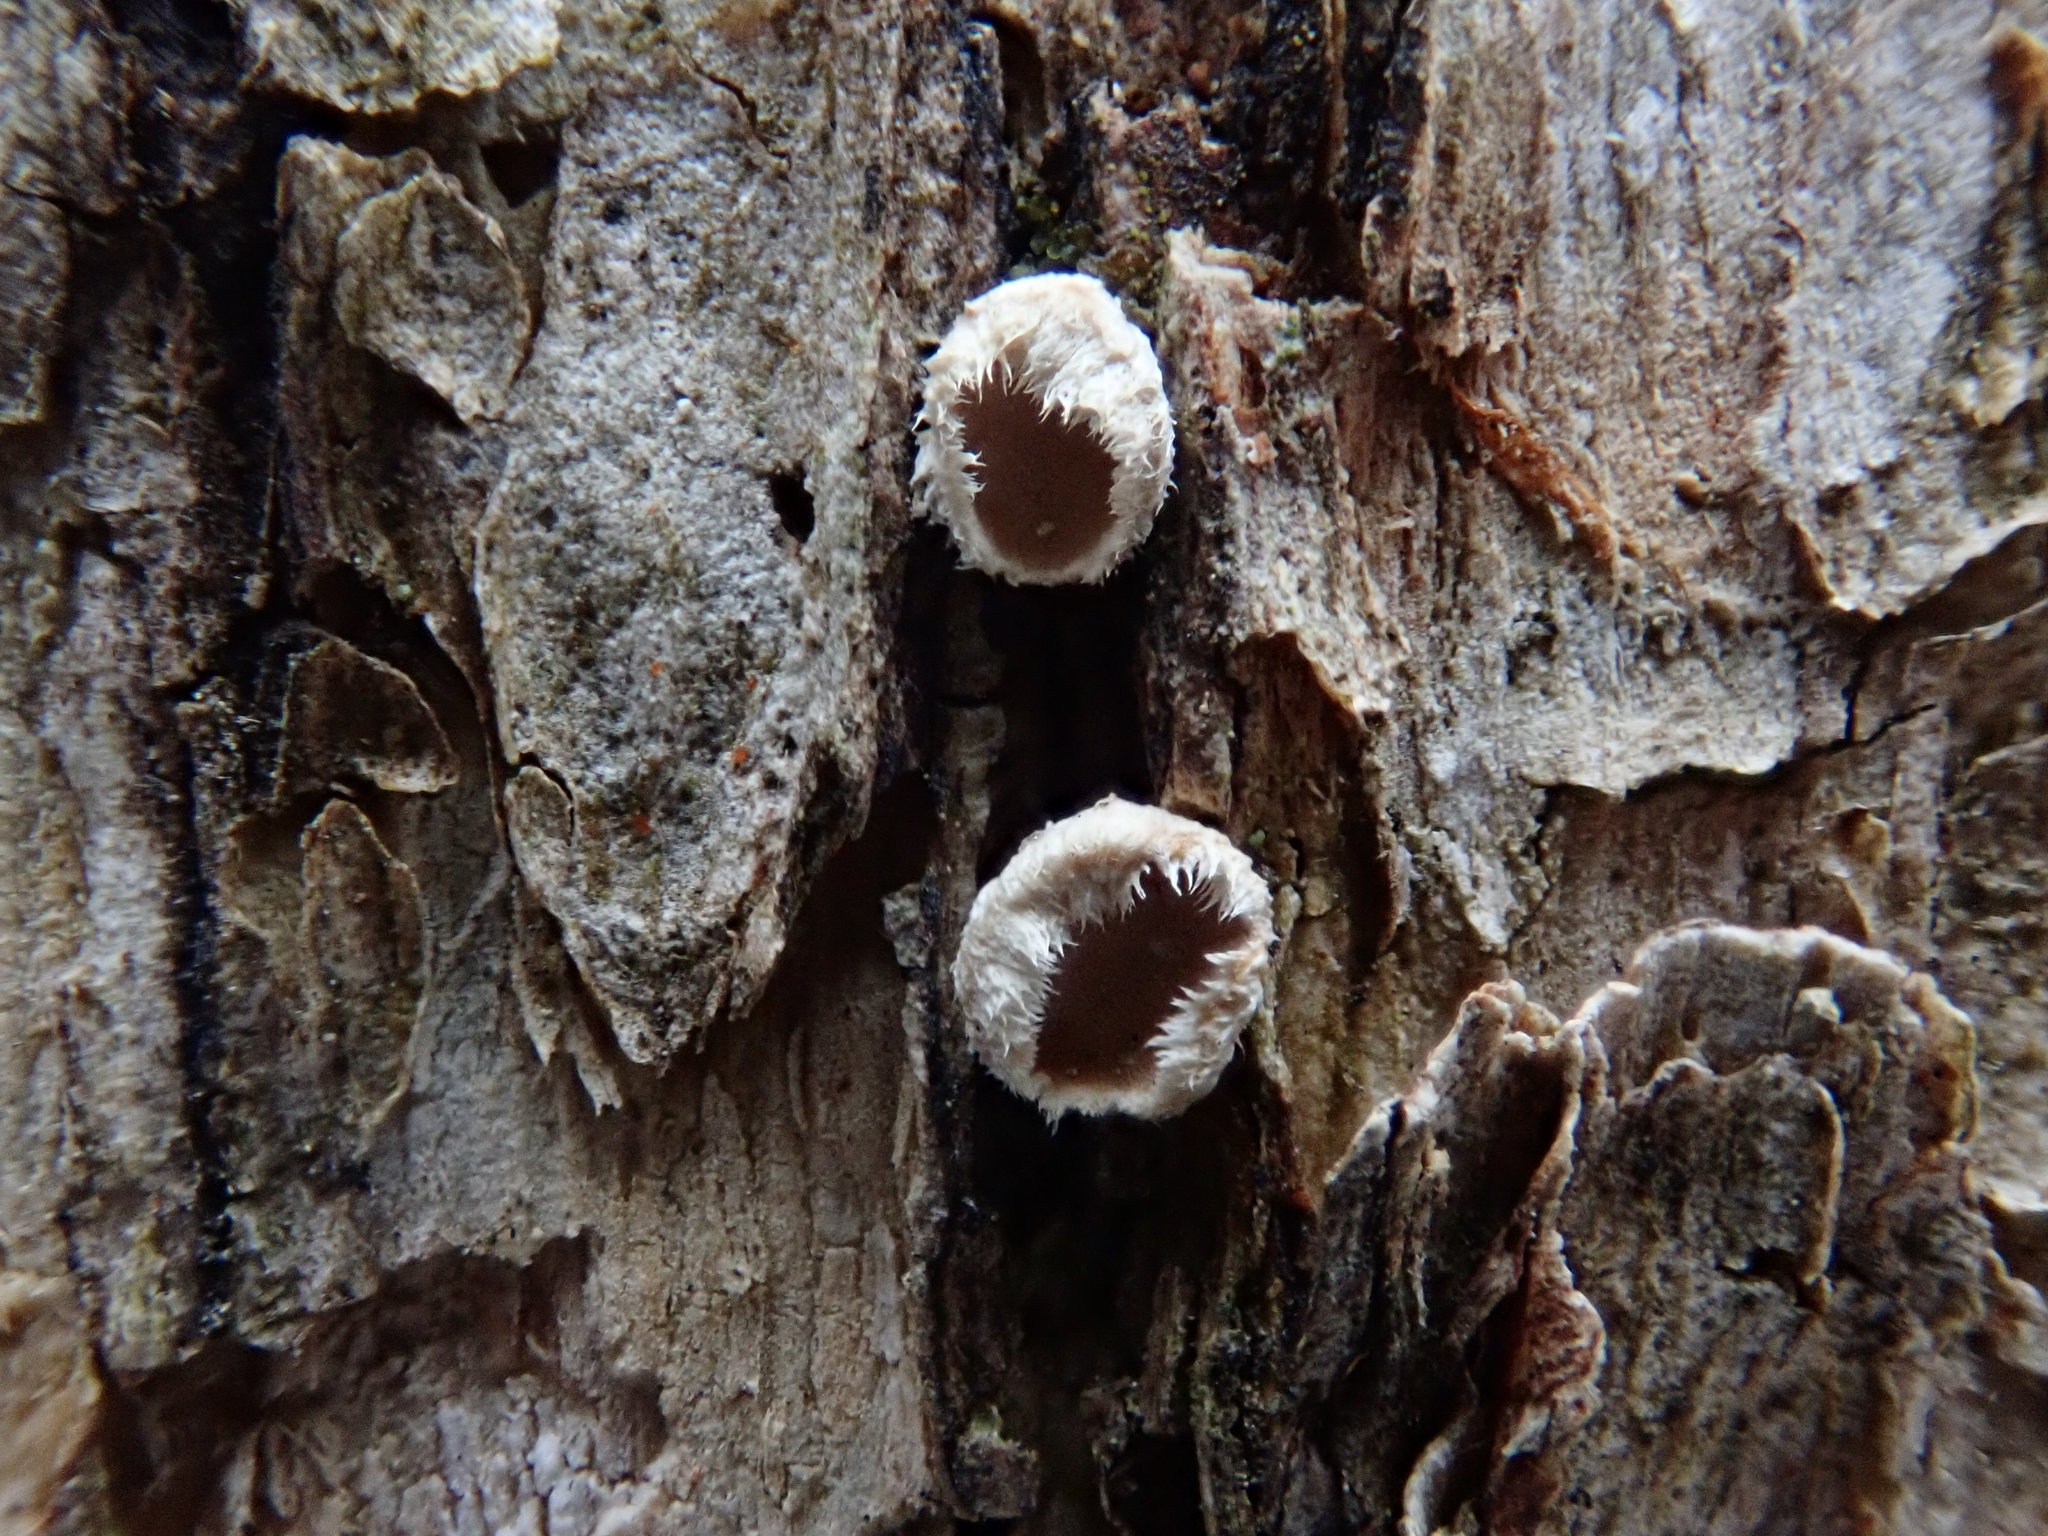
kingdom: Fungi
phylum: Basidiomycota
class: Agaricomycetes
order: Russulales
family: Stereaceae
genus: Acanthophysium
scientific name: Acanthophysium oakesii
